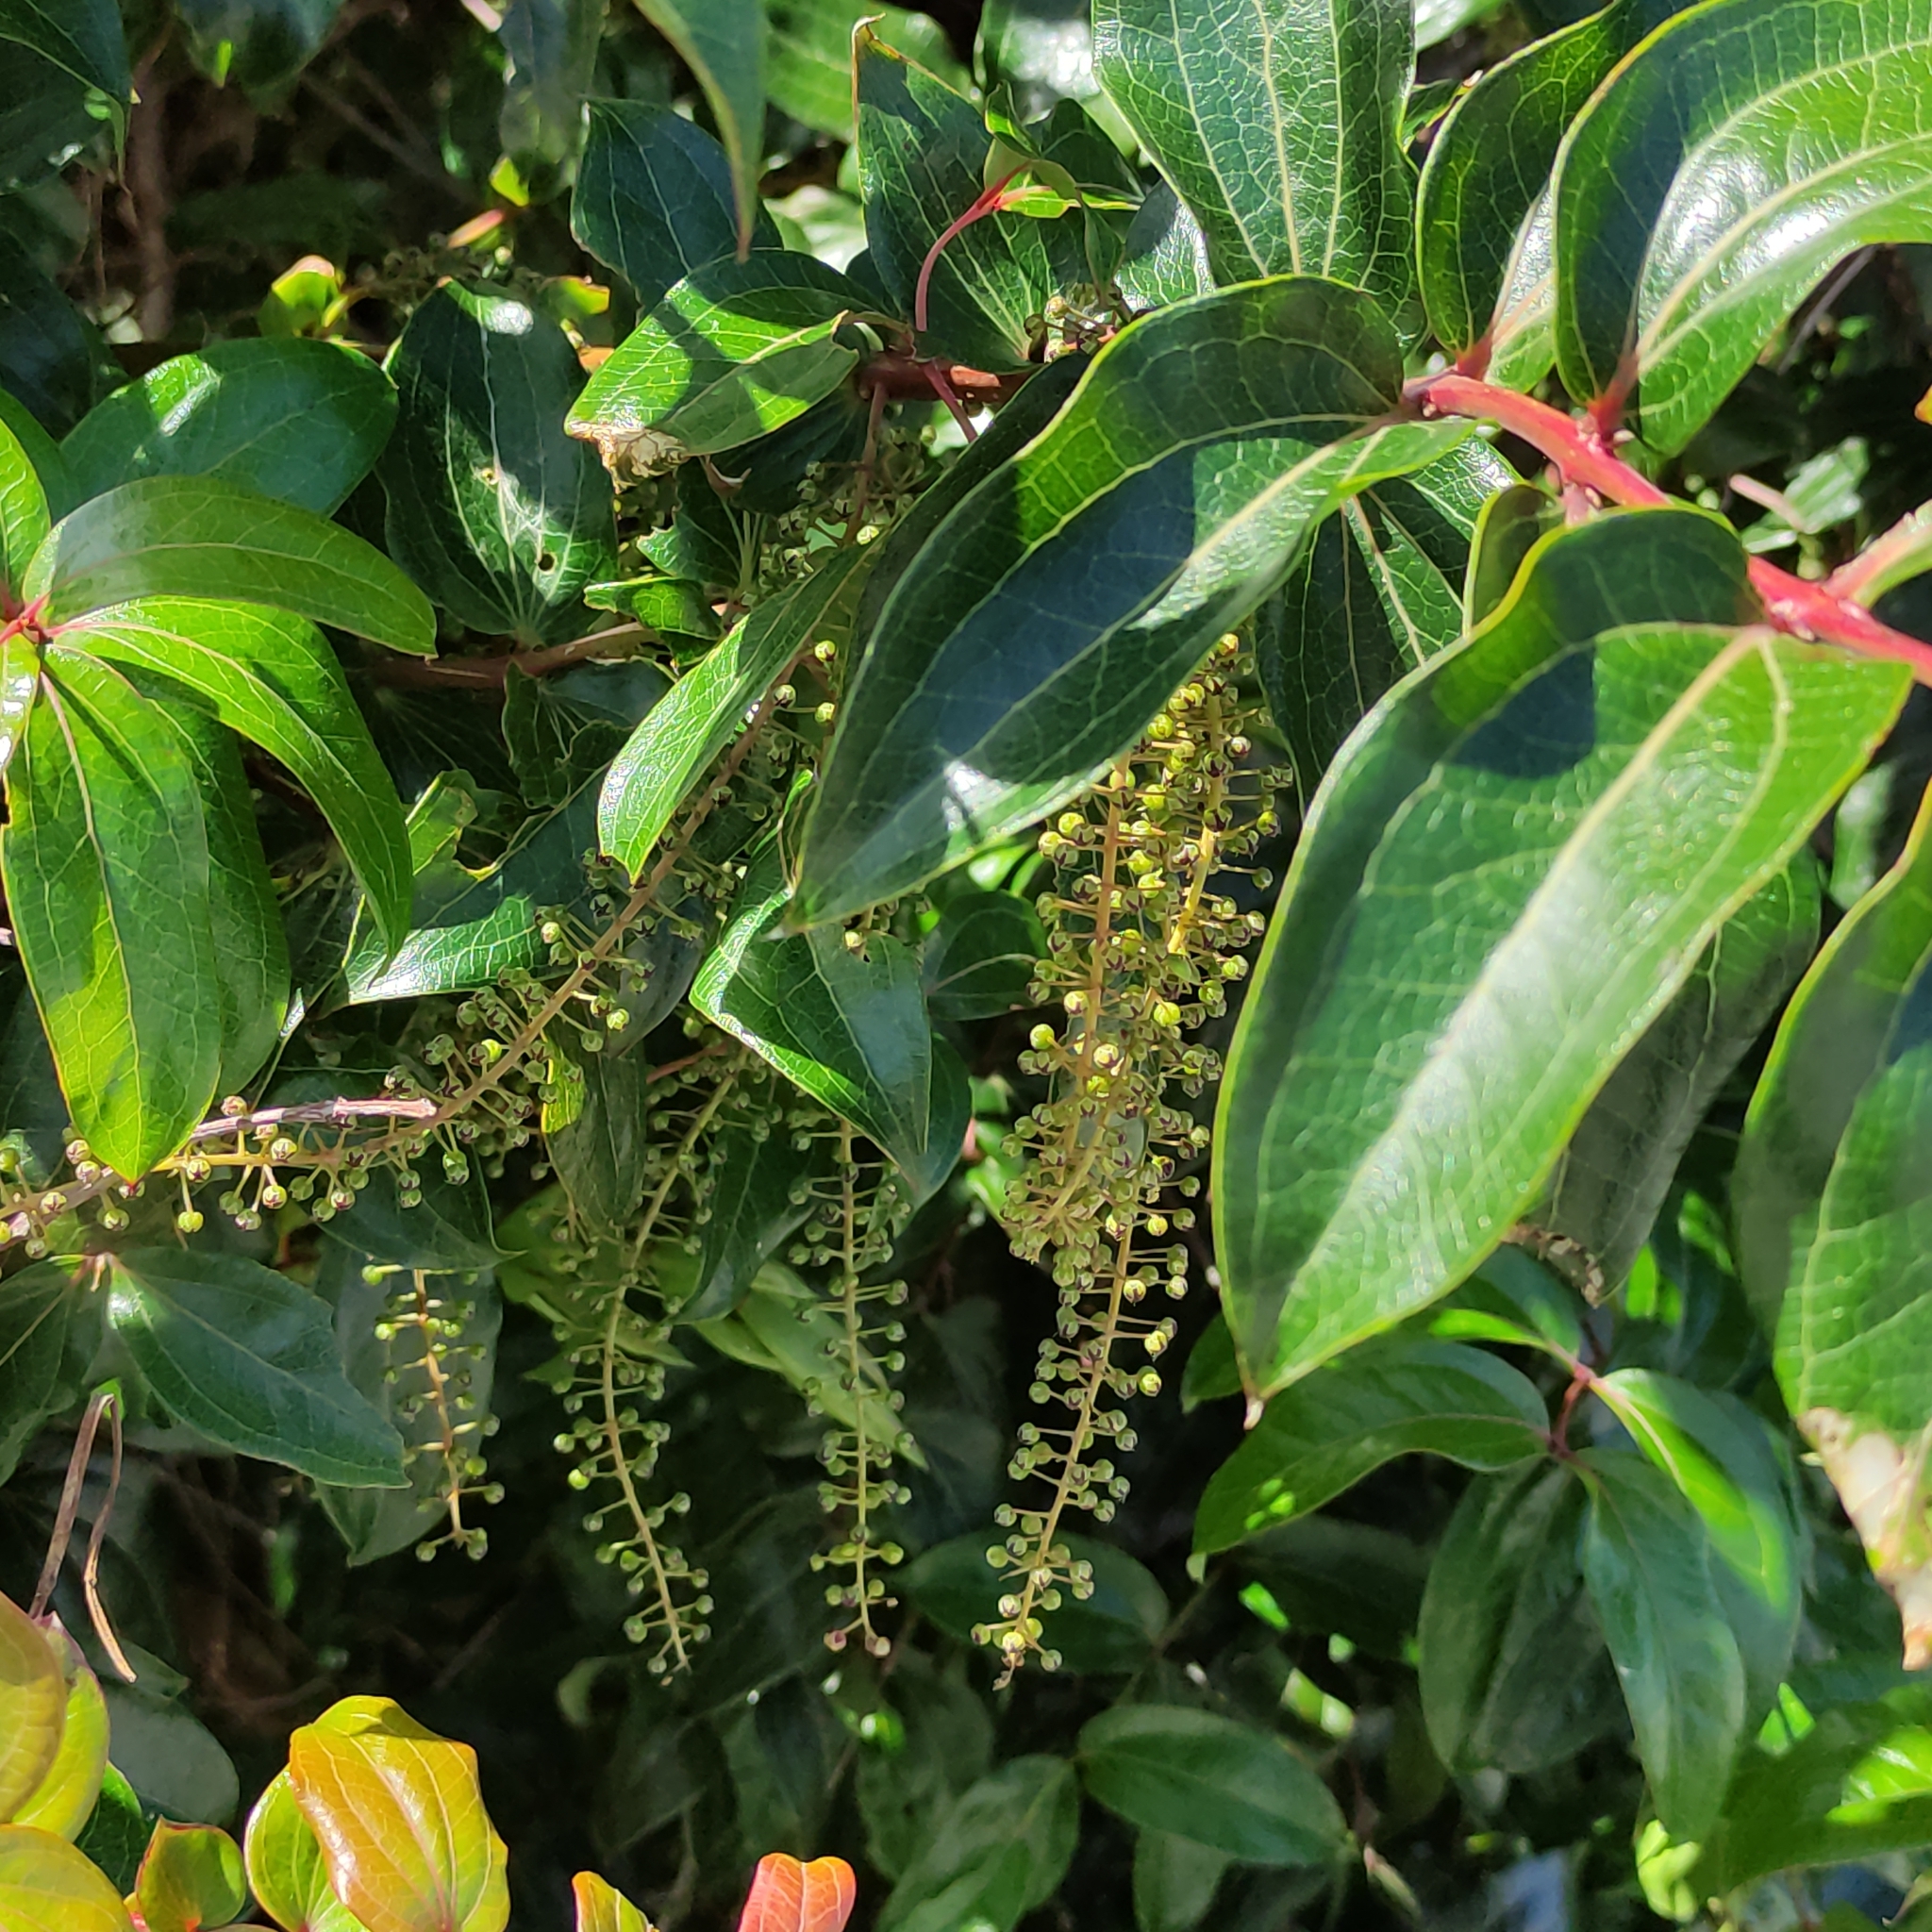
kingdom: Plantae
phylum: Tracheophyta
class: Magnoliopsida
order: Cucurbitales
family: Coriariaceae
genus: Coriaria
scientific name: Coriaria arborea
